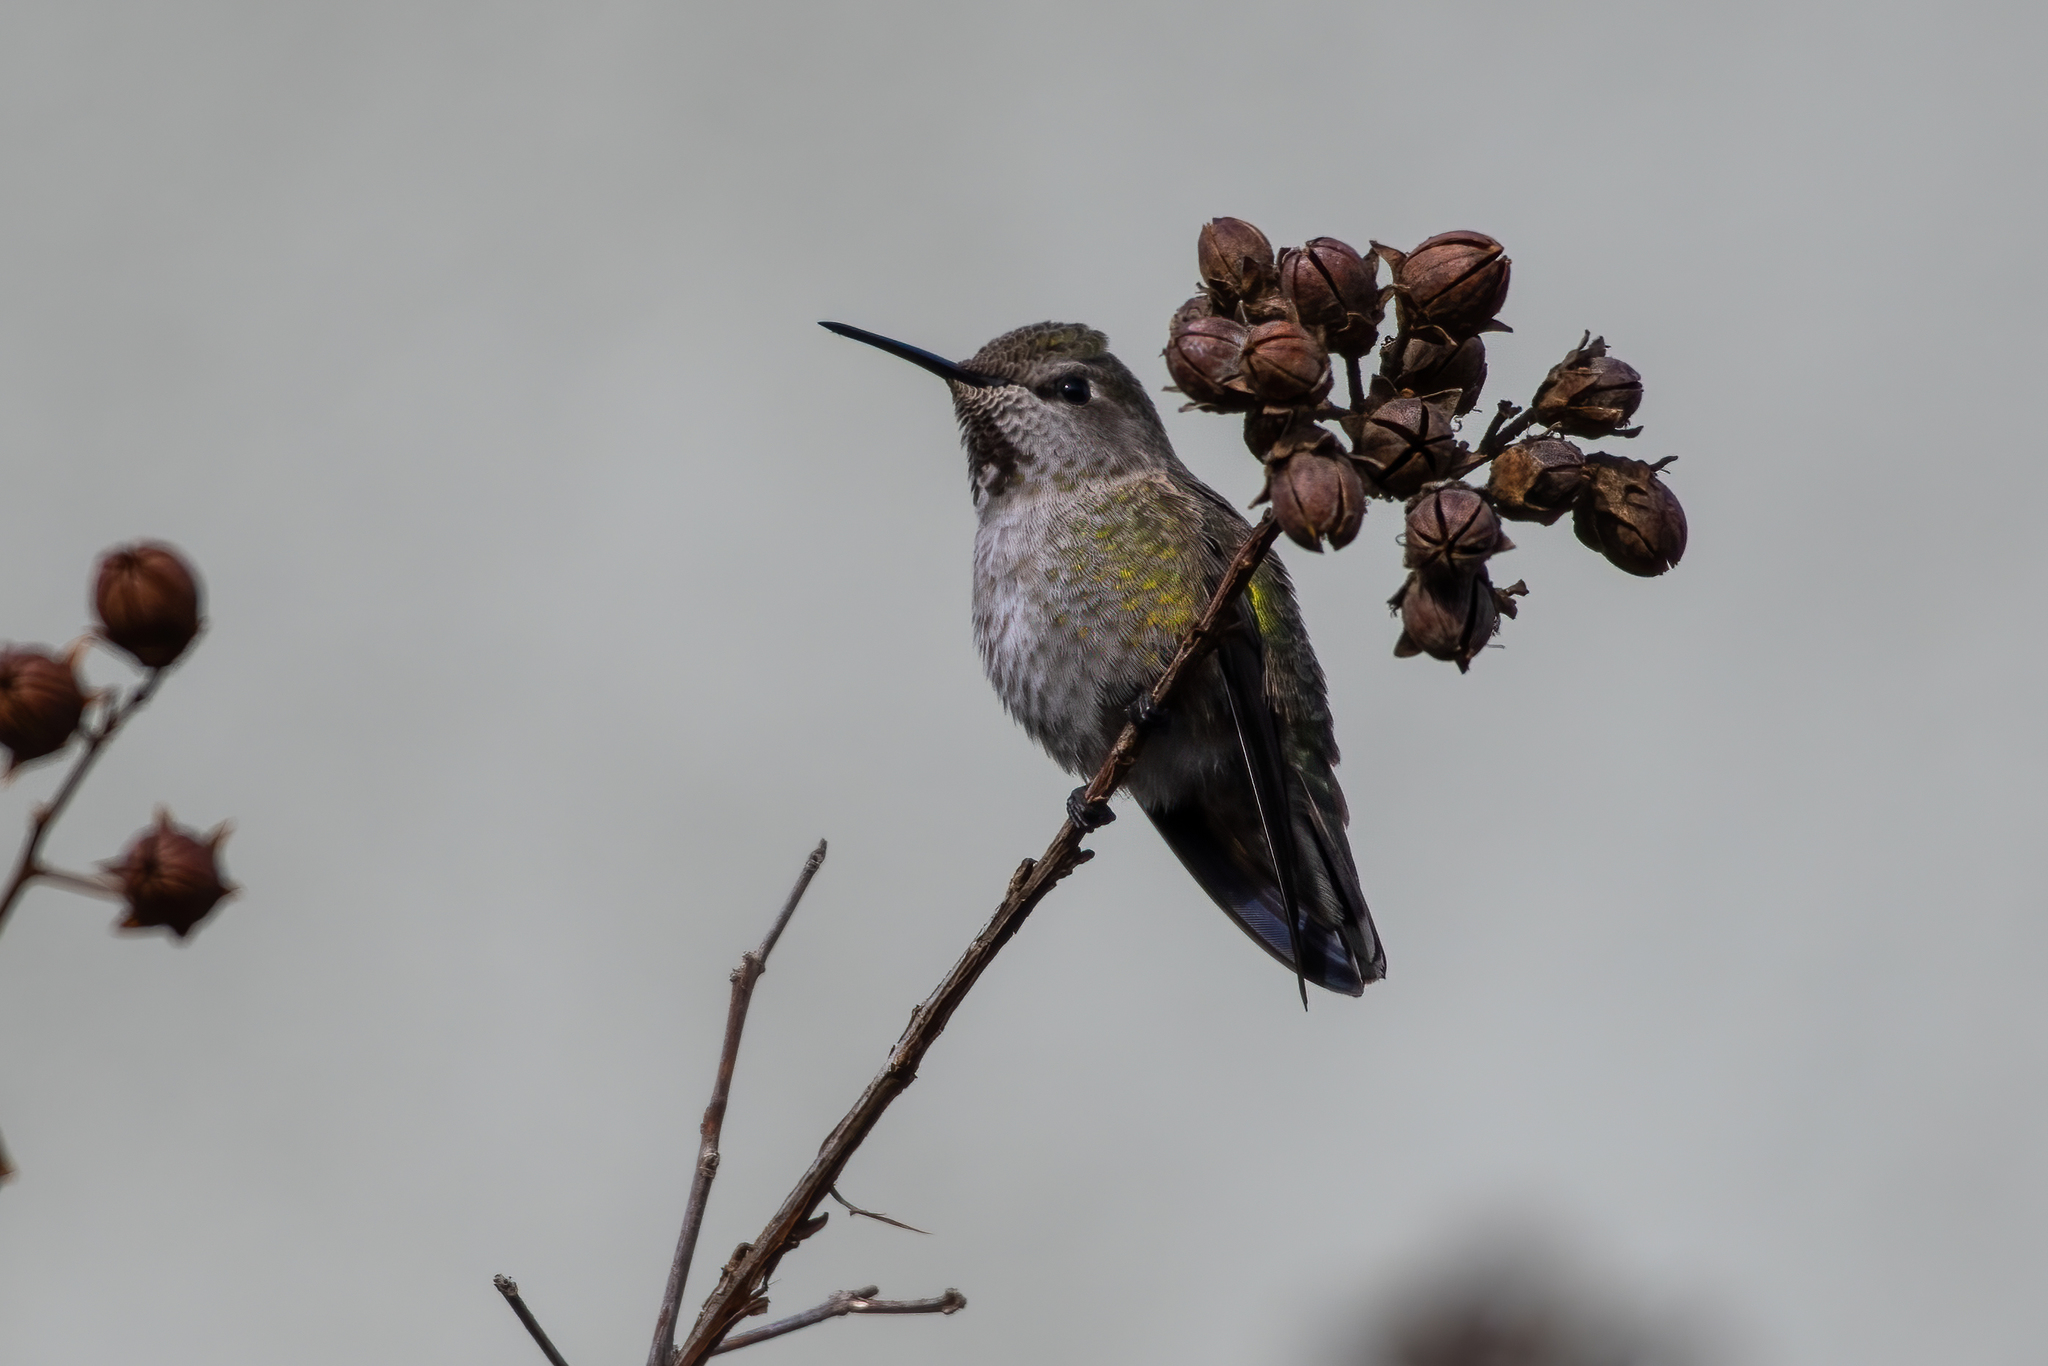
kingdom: Animalia
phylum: Chordata
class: Aves
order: Apodiformes
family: Trochilidae
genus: Calypte
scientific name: Calypte anna
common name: Anna's hummingbird
